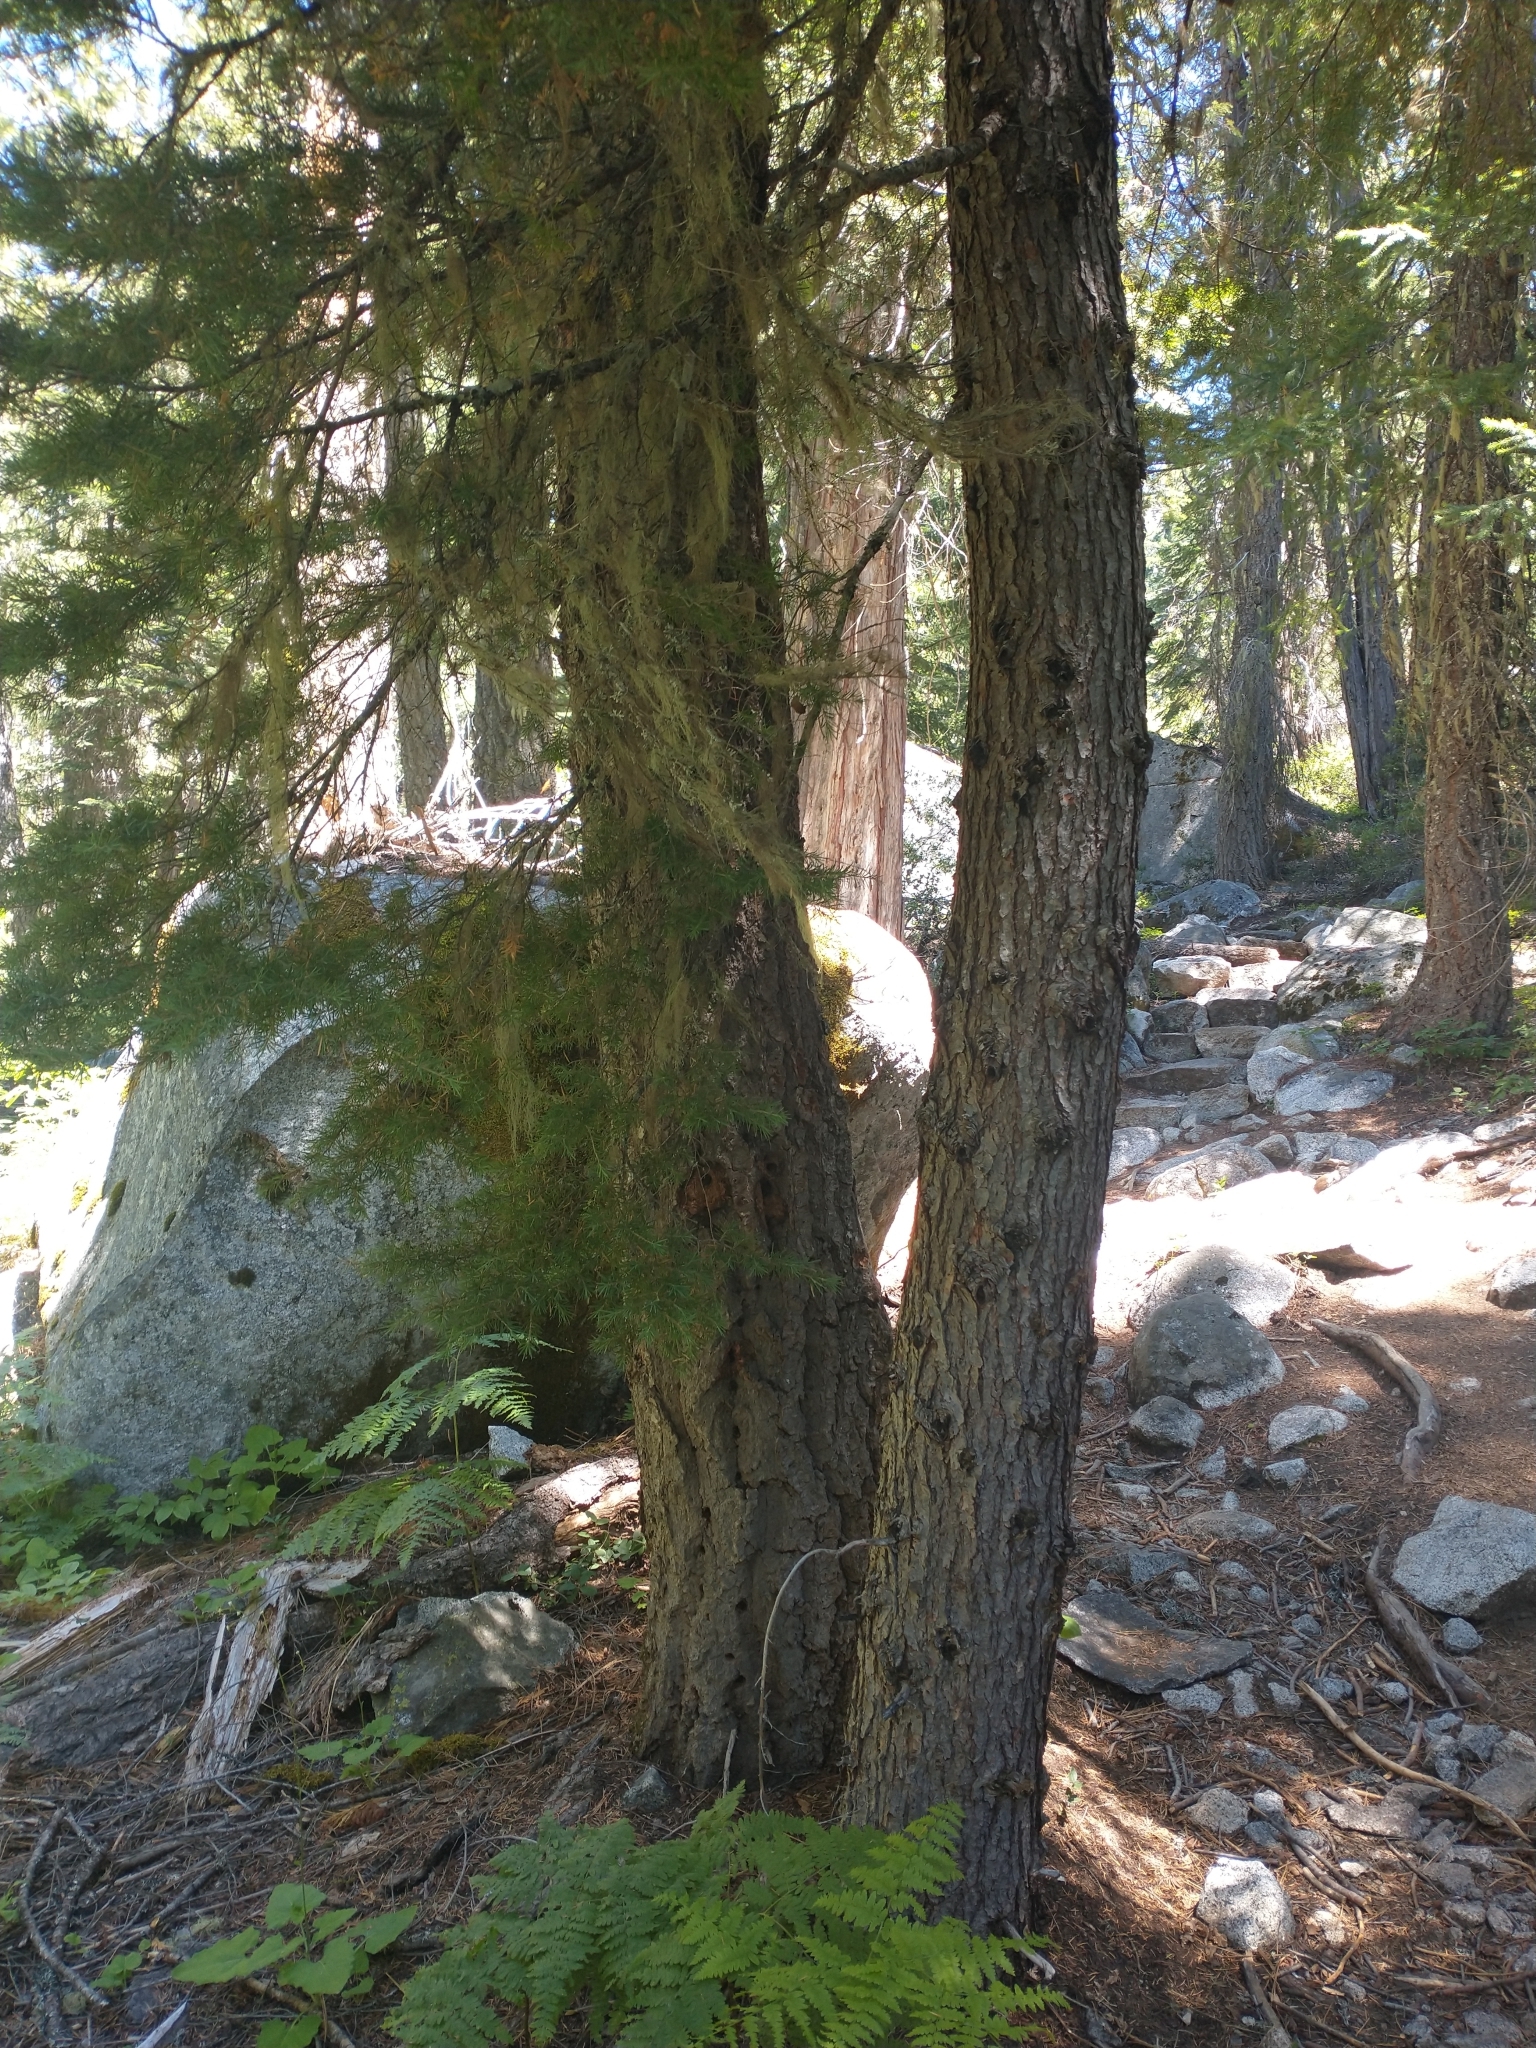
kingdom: Plantae
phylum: Tracheophyta
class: Pinopsida
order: Pinales
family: Pinaceae
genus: Tsuga
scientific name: Tsuga mertensiana
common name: Mountain hemlock
